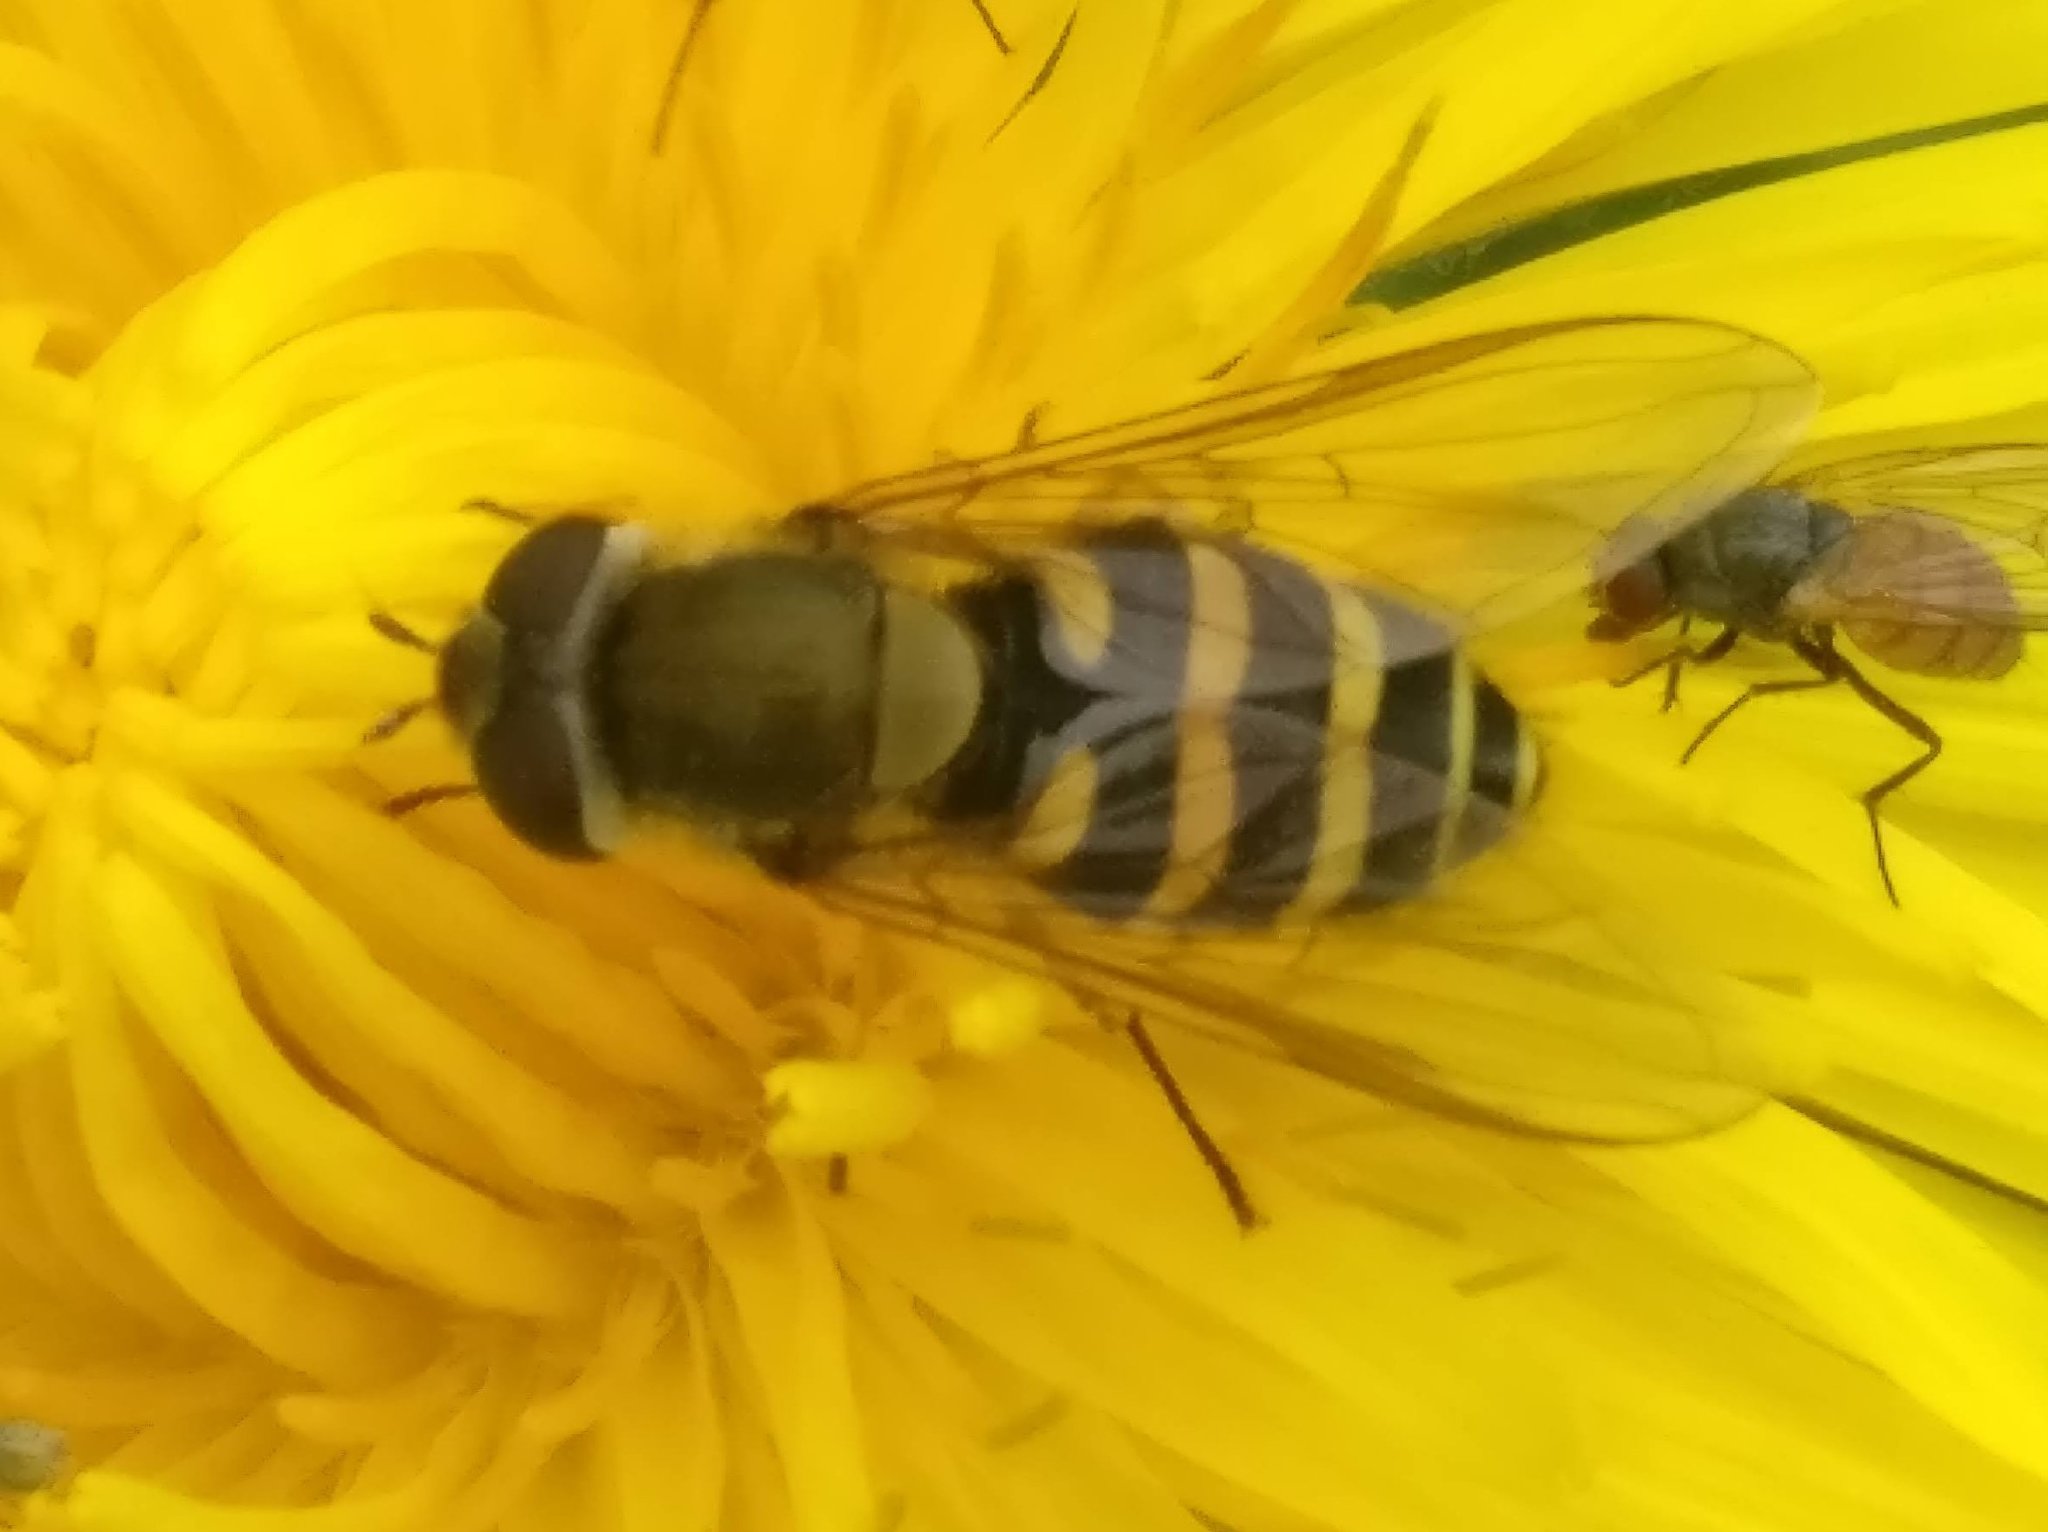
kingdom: Animalia
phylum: Arthropoda
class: Insecta
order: Diptera
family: Syrphidae
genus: Syrphus
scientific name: Syrphus
